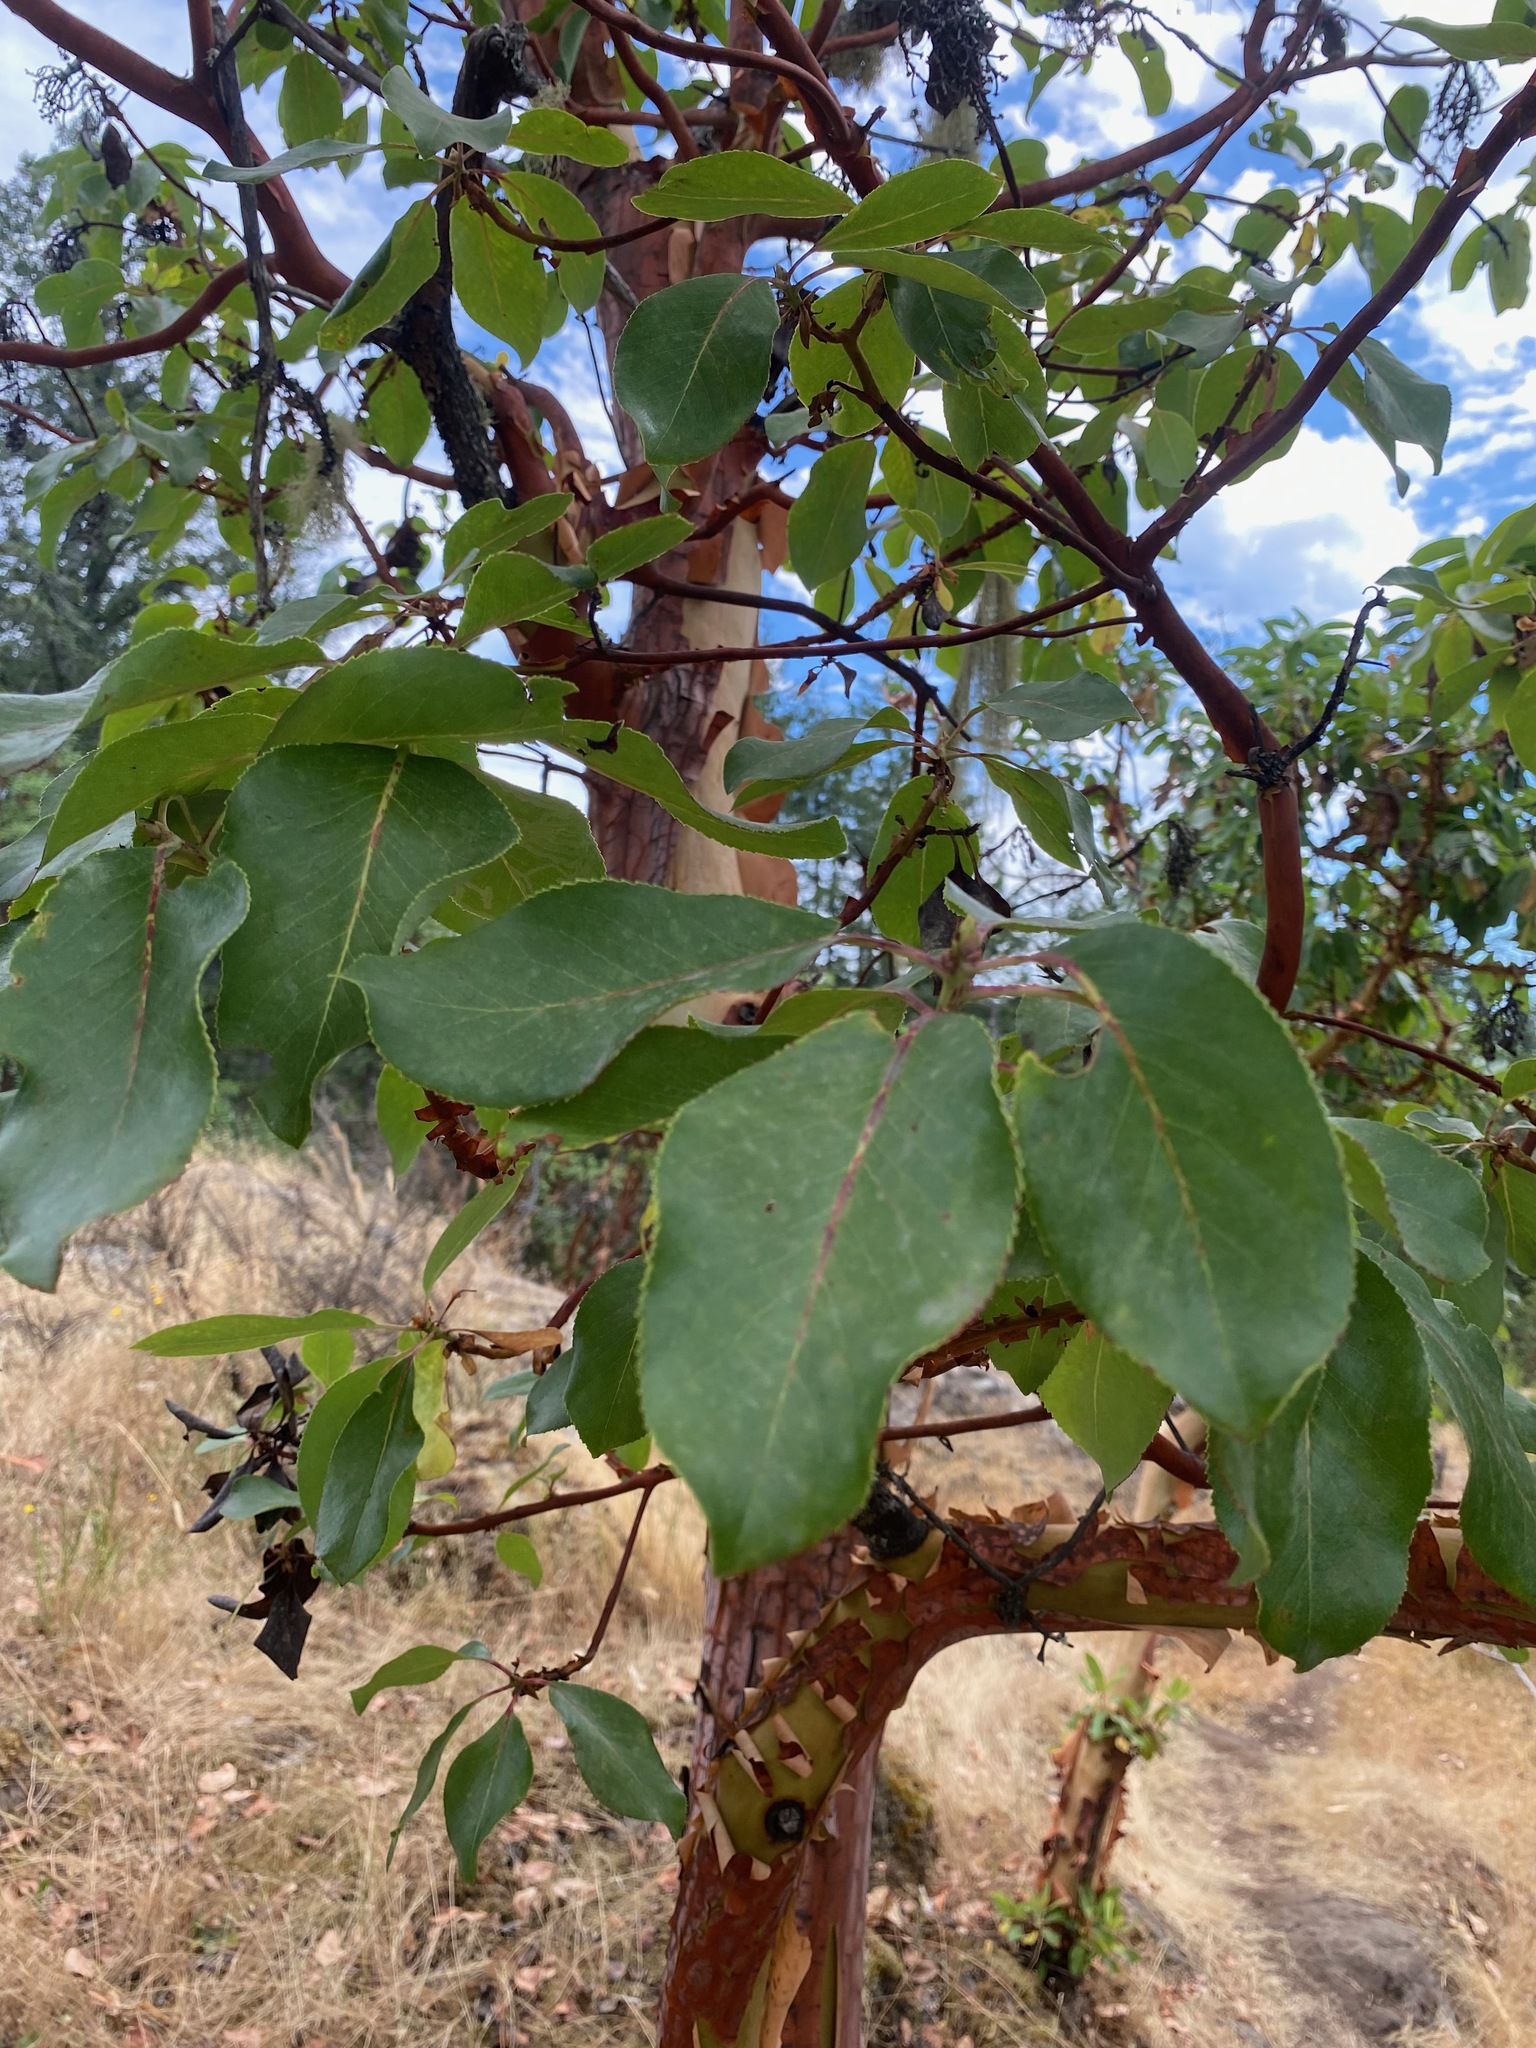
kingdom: Plantae
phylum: Tracheophyta
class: Magnoliopsida
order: Ericales
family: Ericaceae
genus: Arbutus
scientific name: Arbutus menziesii
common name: Pacific madrone
